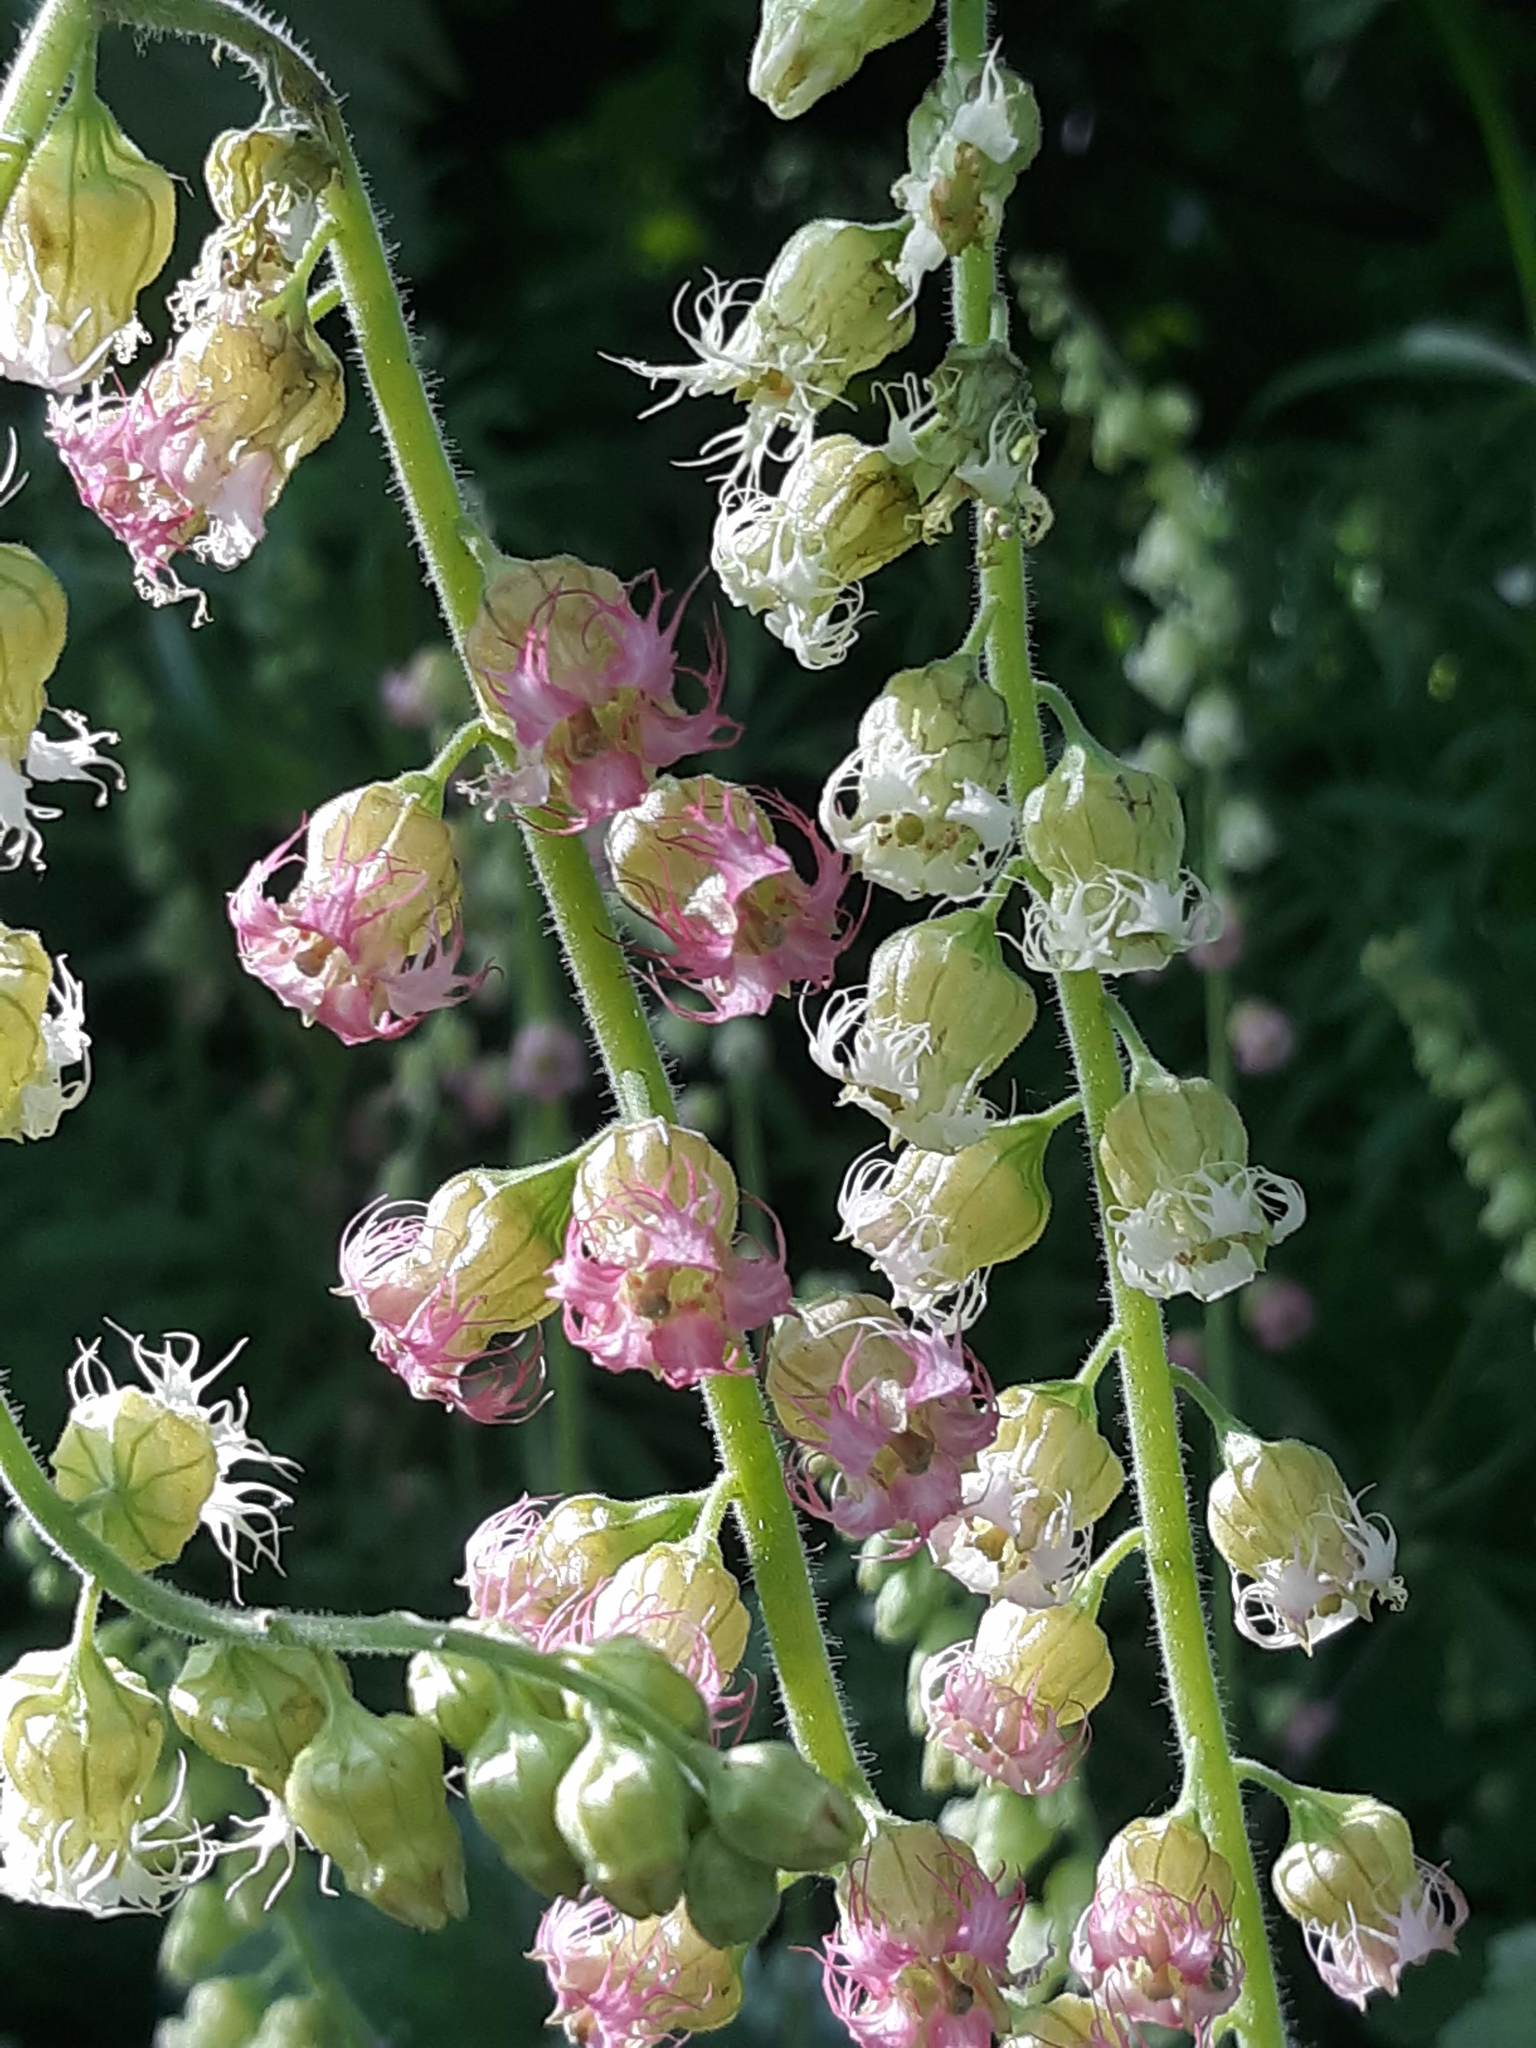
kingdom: Plantae
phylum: Tracheophyta
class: Magnoliopsida
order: Saxifragales
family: Saxifragaceae
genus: Tellima
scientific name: Tellima grandiflora
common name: Fringecups
